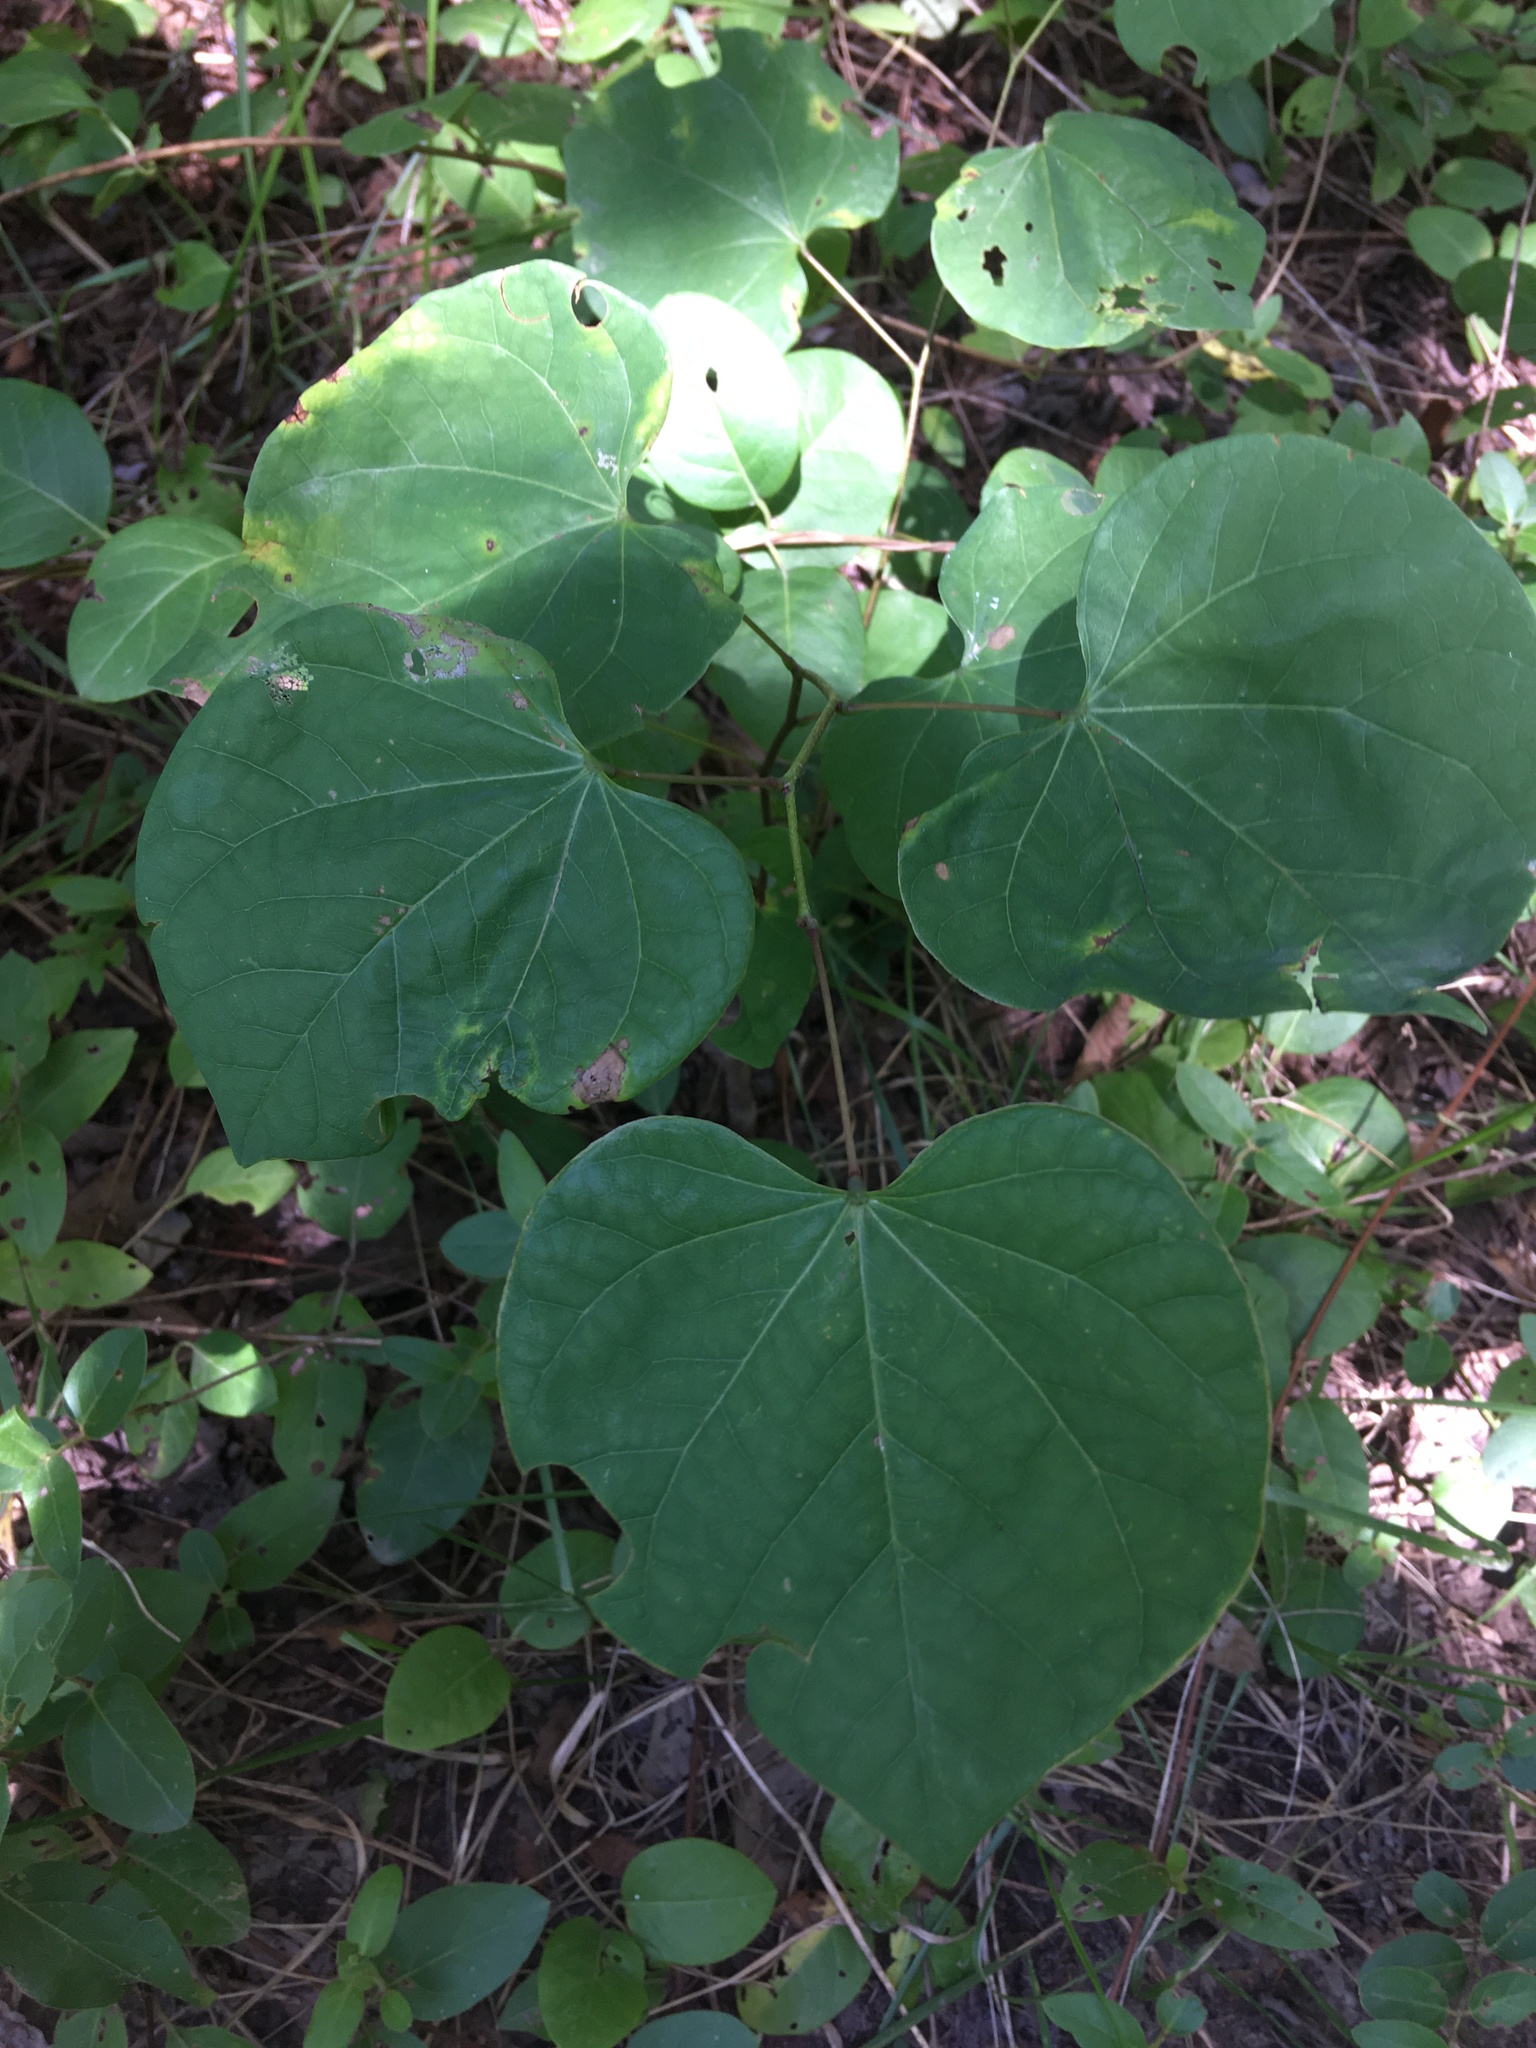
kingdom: Plantae
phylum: Tracheophyta
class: Magnoliopsida
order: Fabales
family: Fabaceae
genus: Cercis
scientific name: Cercis canadensis
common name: Eastern redbud
